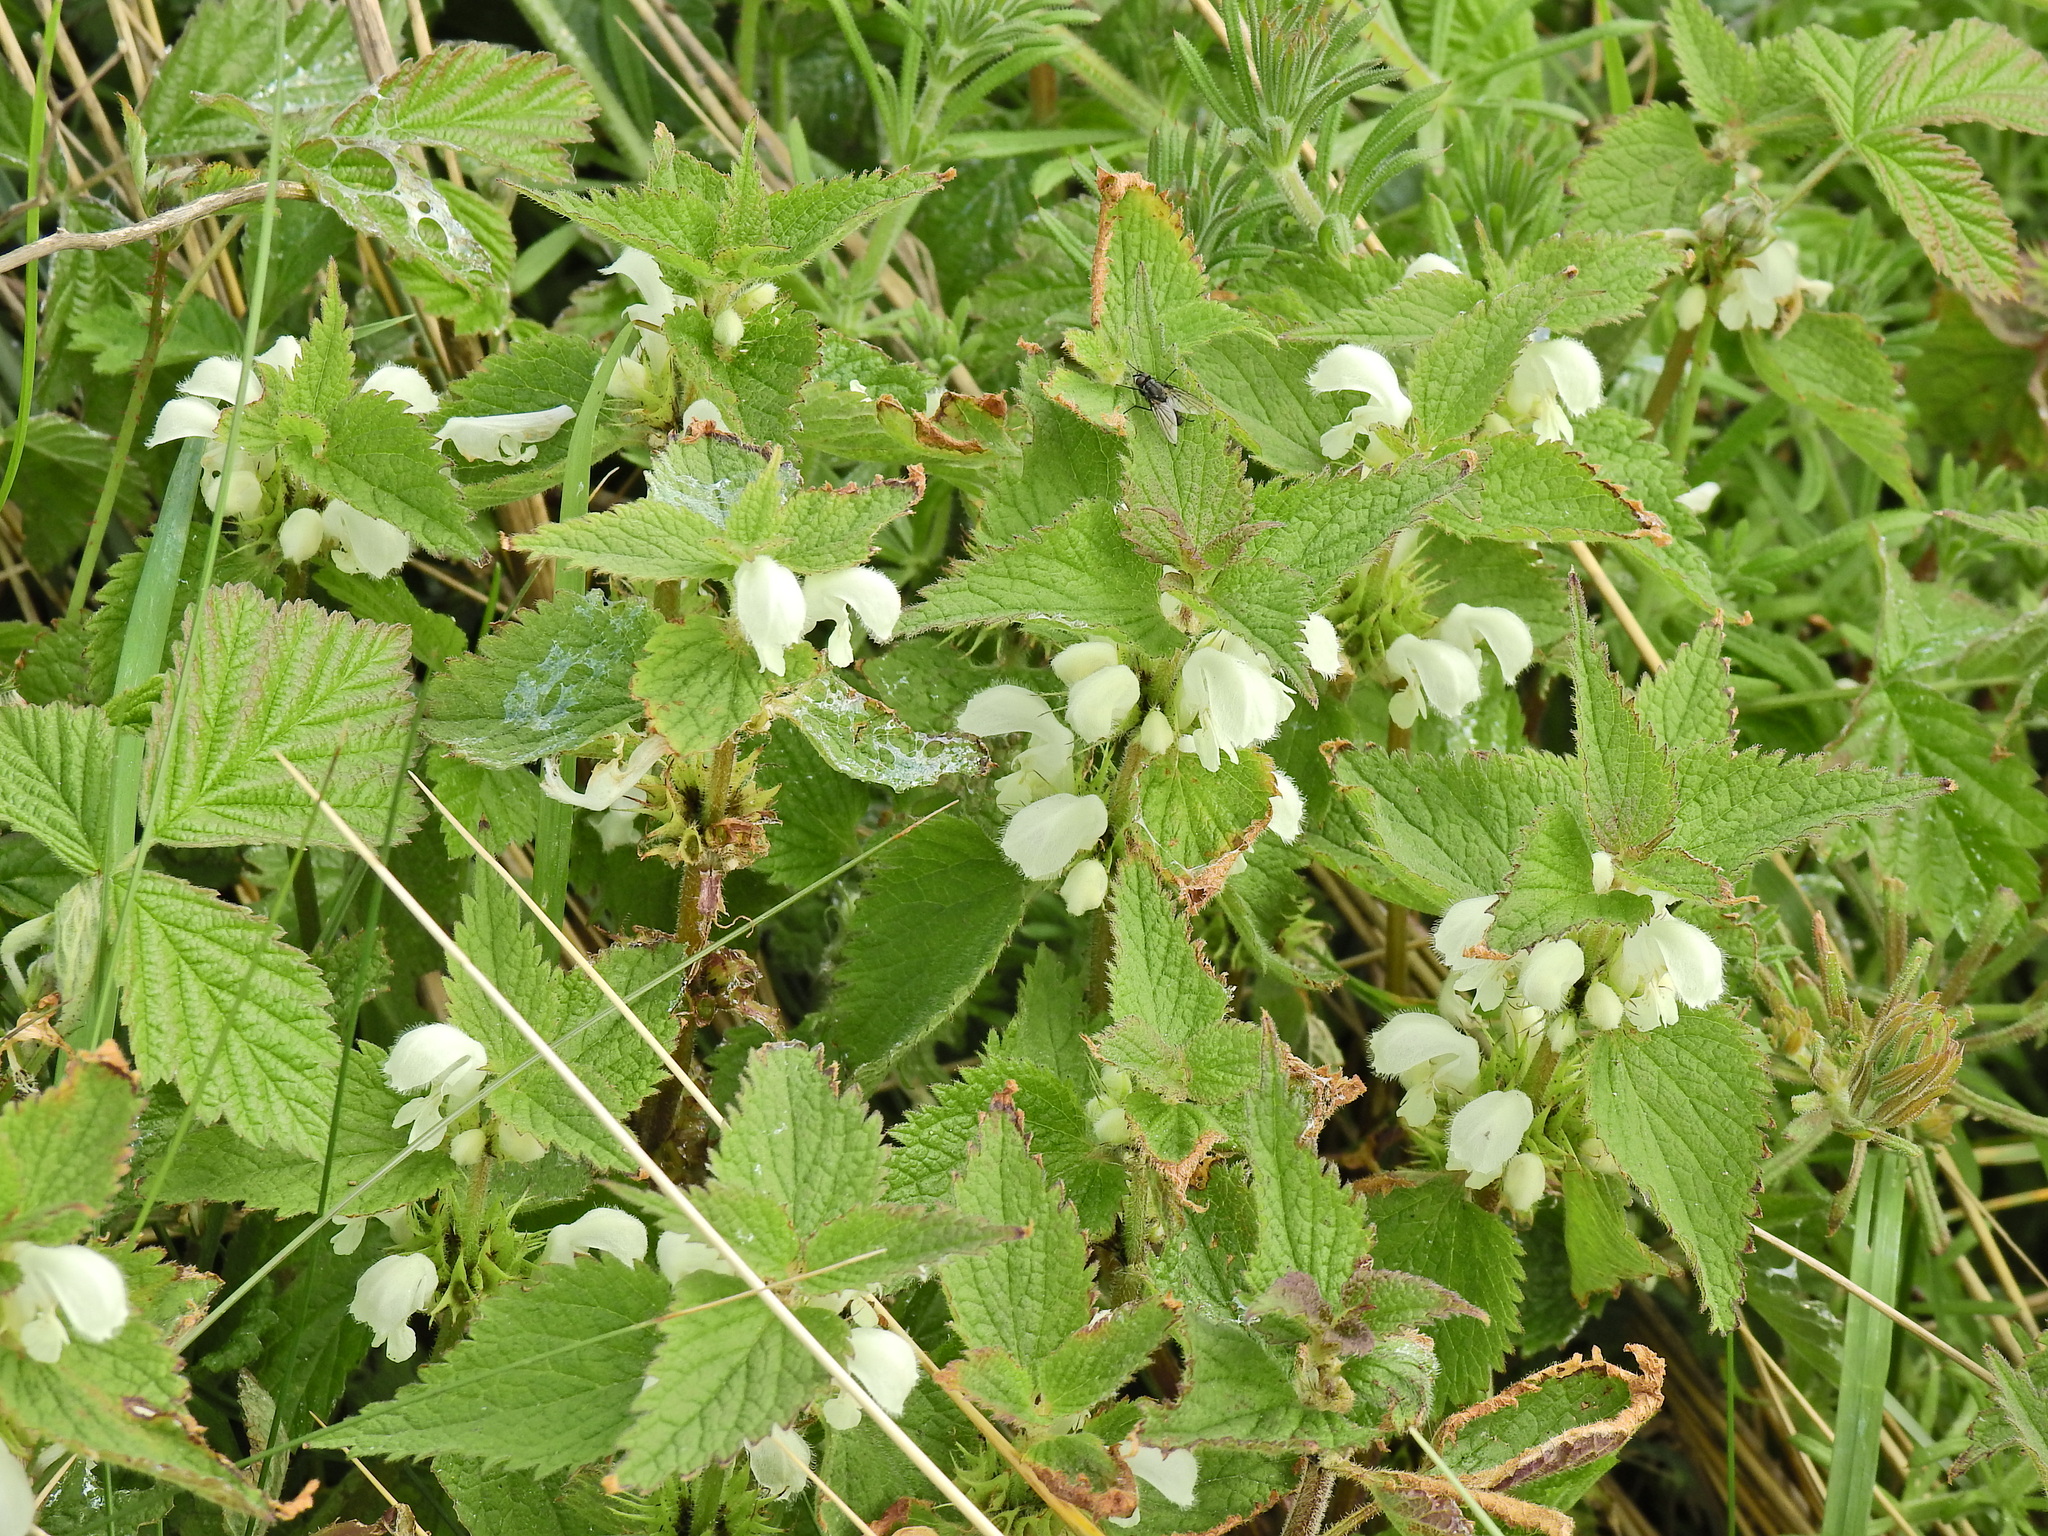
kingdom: Plantae
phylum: Tracheophyta
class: Magnoliopsida
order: Lamiales
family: Lamiaceae
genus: Lamium
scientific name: Lamium album
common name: White dead-nettle
